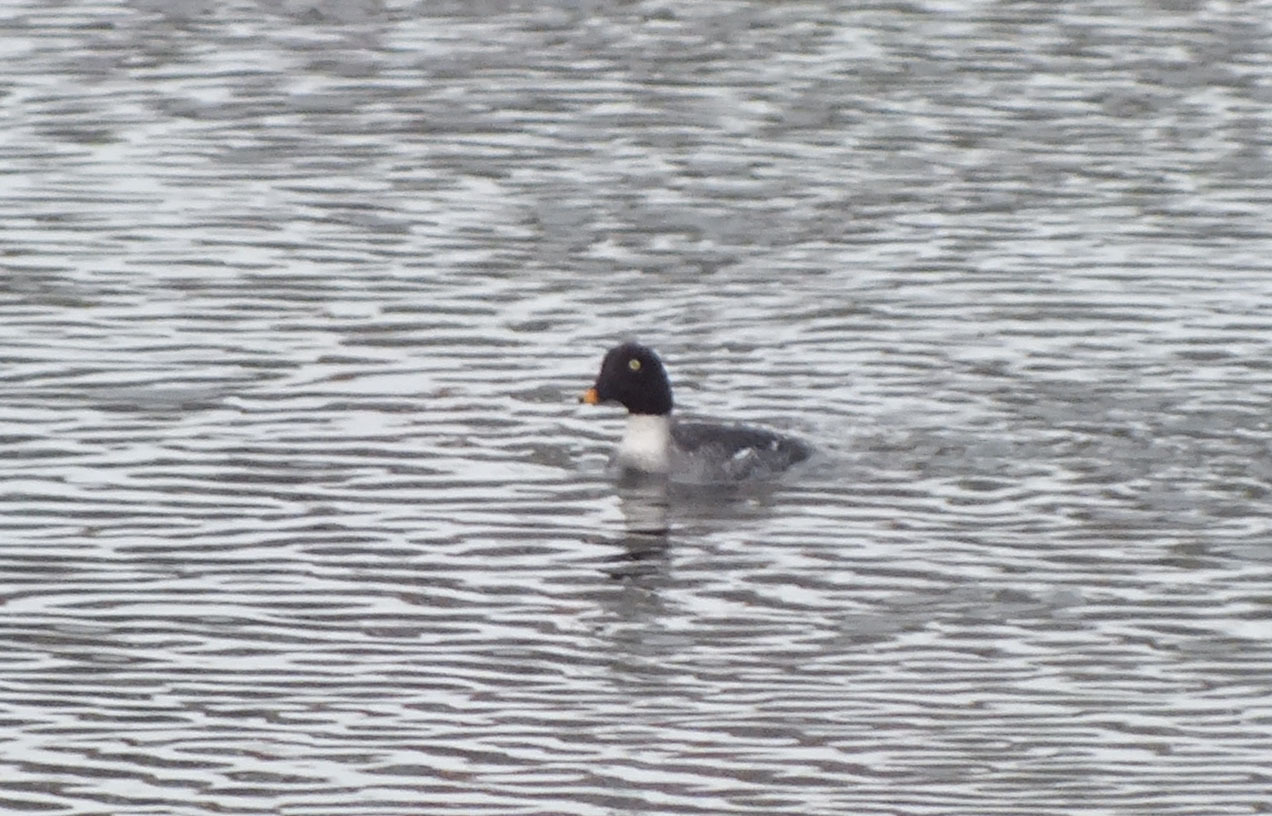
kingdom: Animalia
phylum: Chordata
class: Aves
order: Anseriformes
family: Anatidae
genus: Bucephala
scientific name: Bucephala clangula
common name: Common goldeneye
